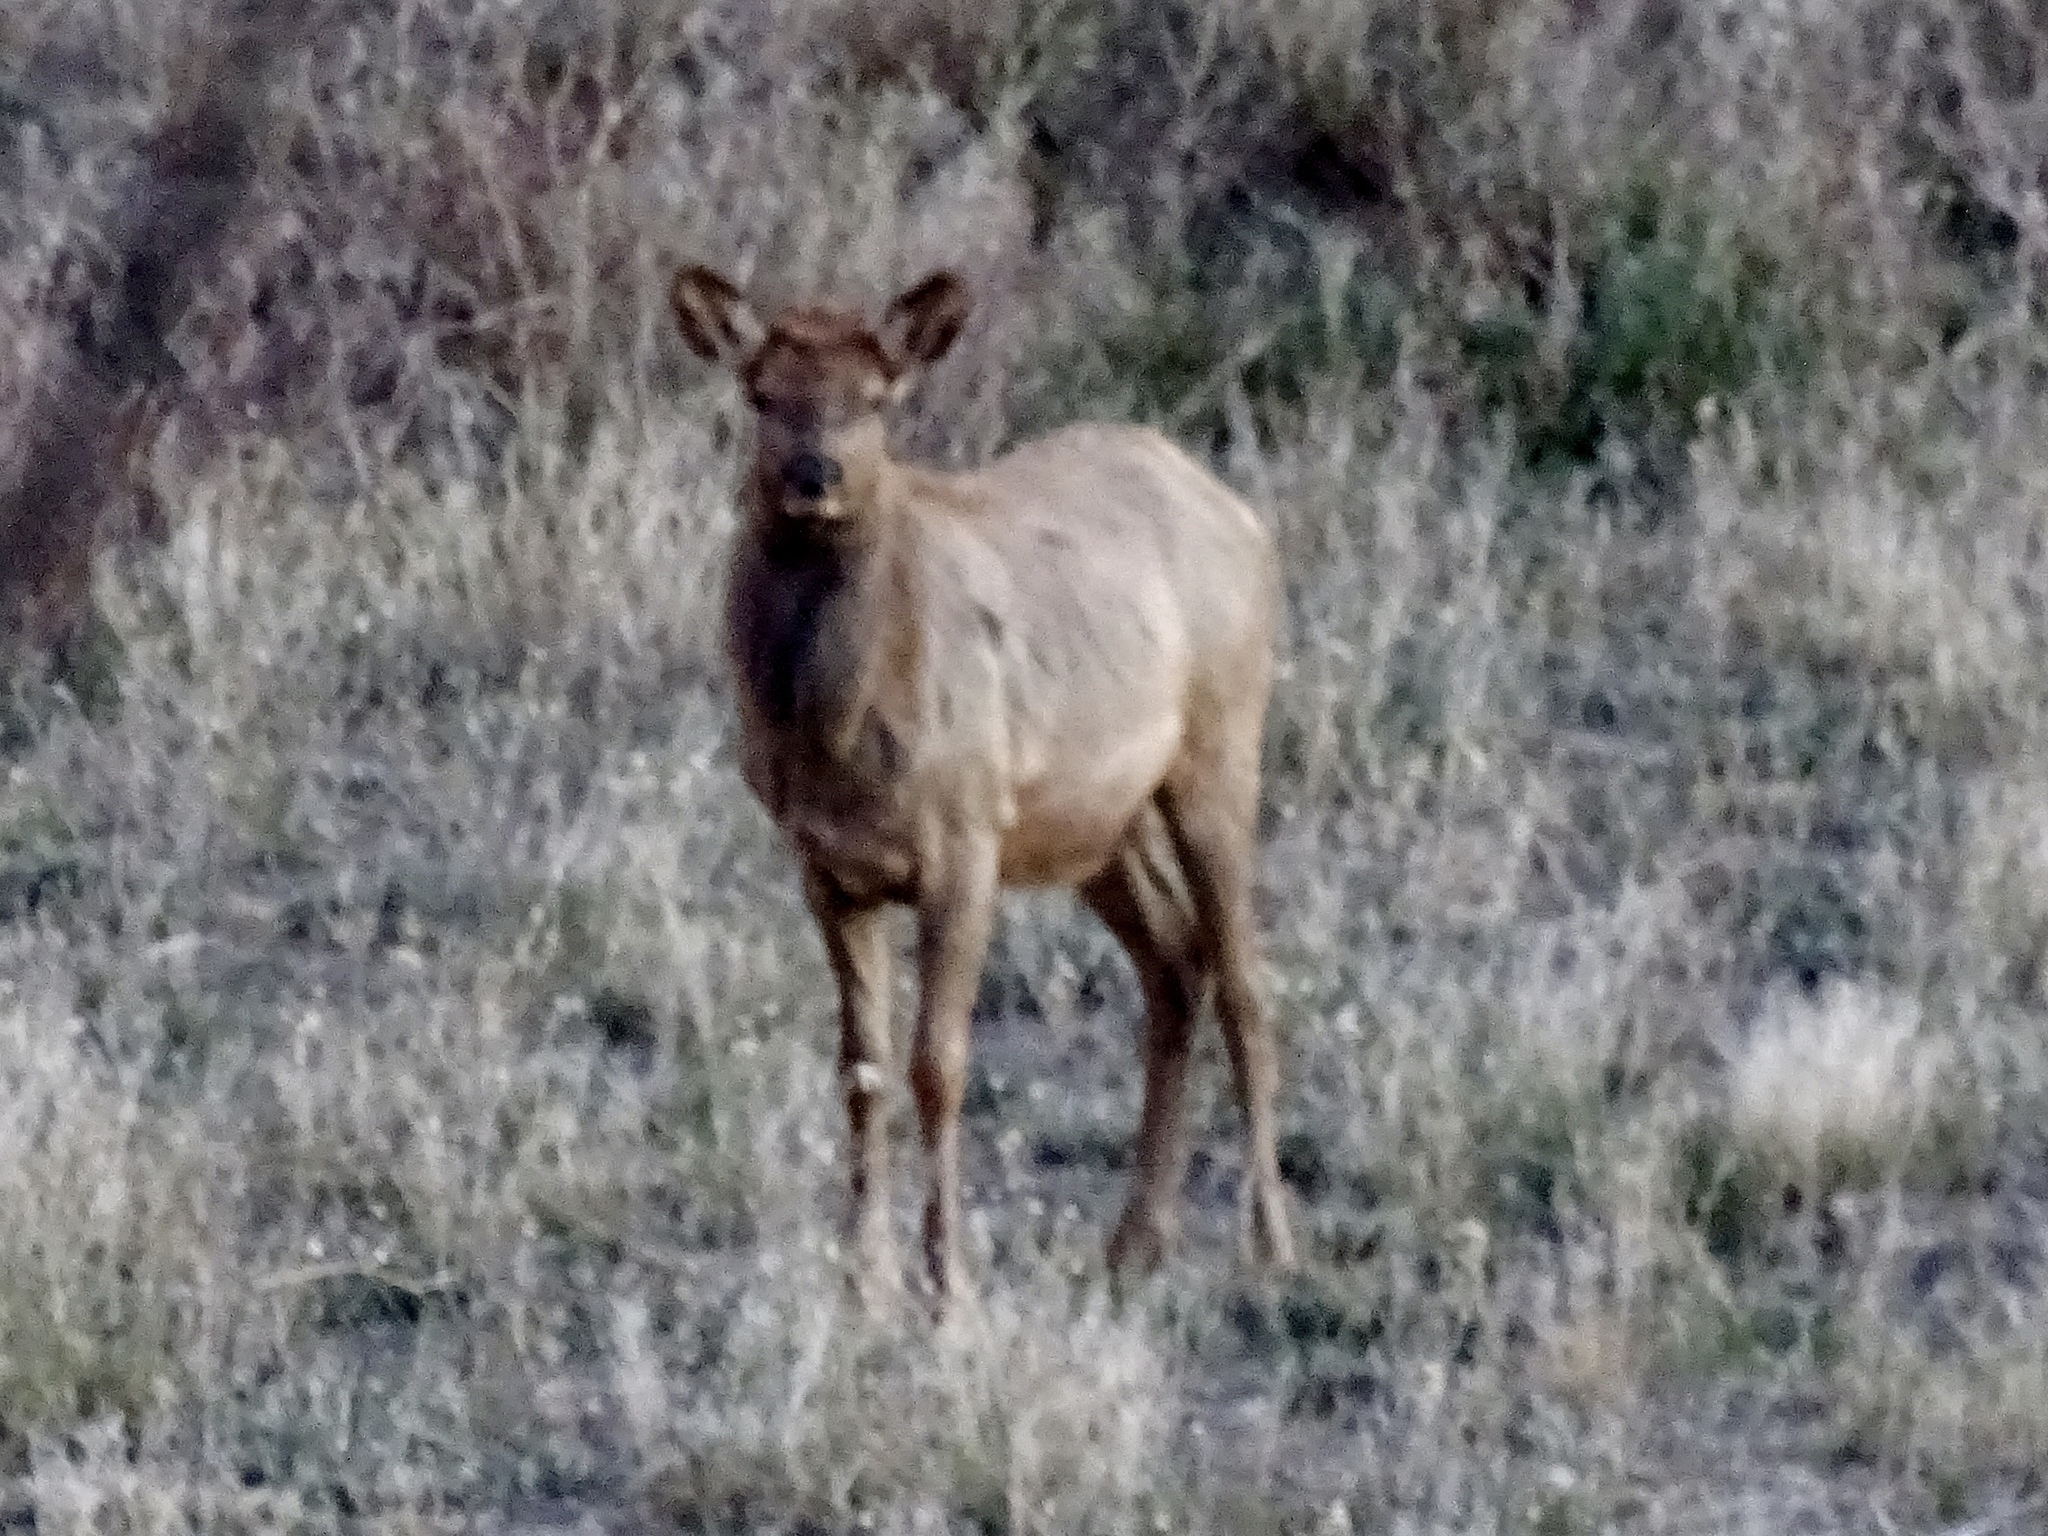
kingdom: Animalia
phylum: Chordata
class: Mammalia
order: Artiodactyla
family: Cervidae
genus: Cervus
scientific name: Cervus elaphus
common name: Red deer
